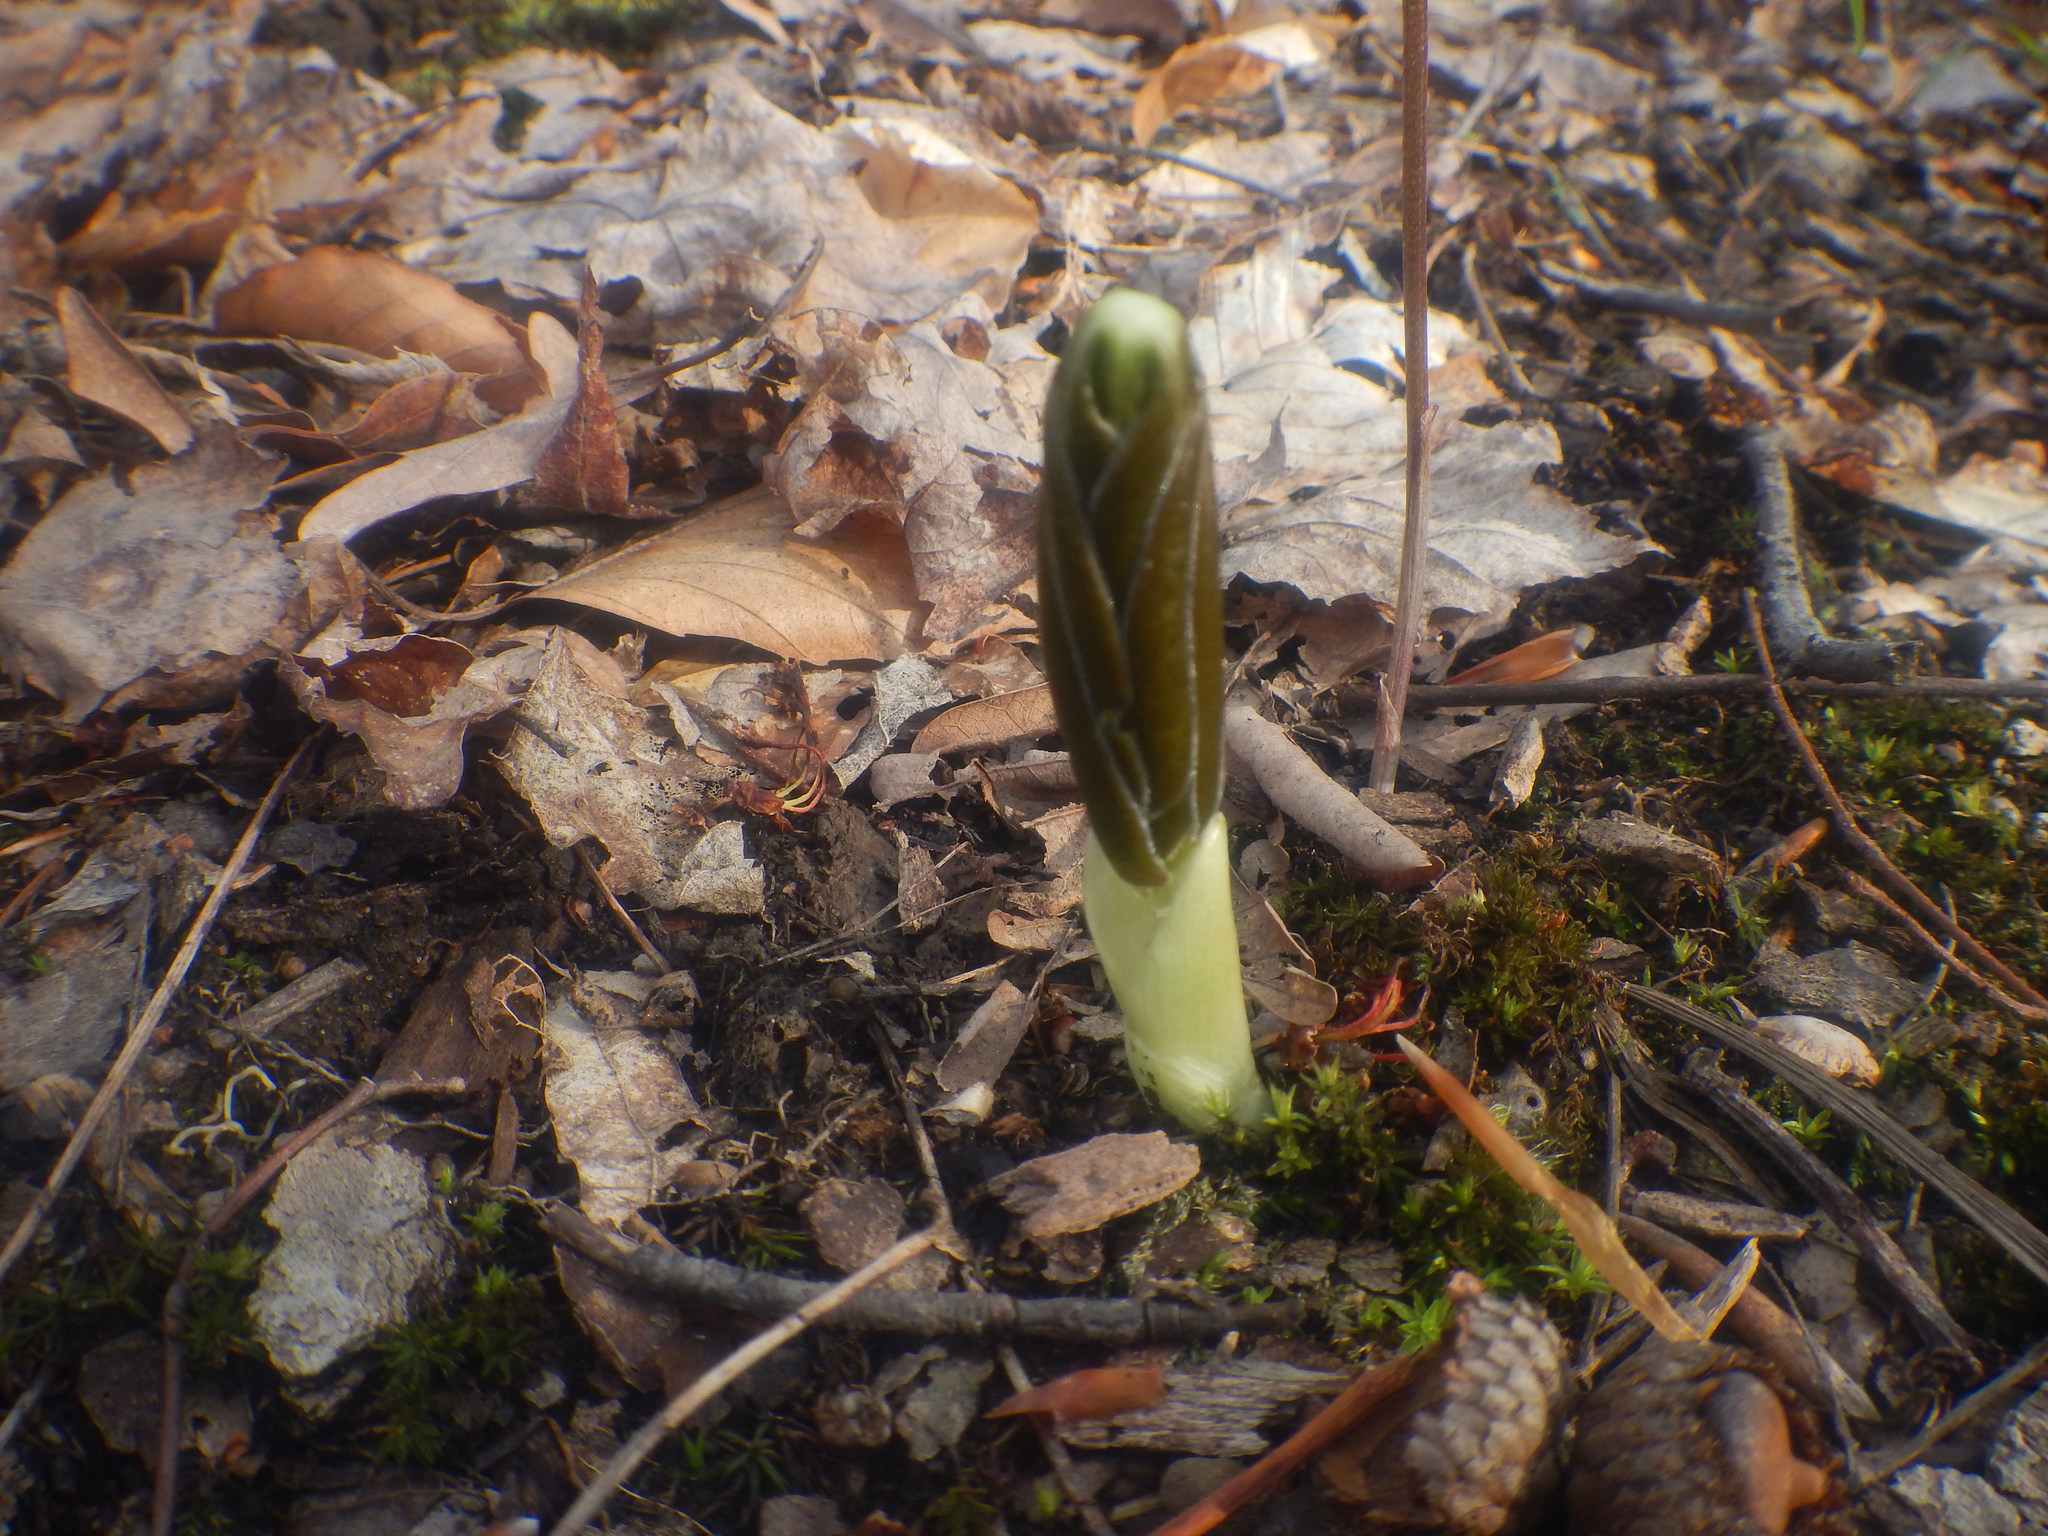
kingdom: Plantae
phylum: Tracheophyta
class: Magnoliopsida
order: Ranunculales
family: Berberidaceae
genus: Podophyllum
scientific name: Podophyllum peltatum
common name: Wild mandrake
